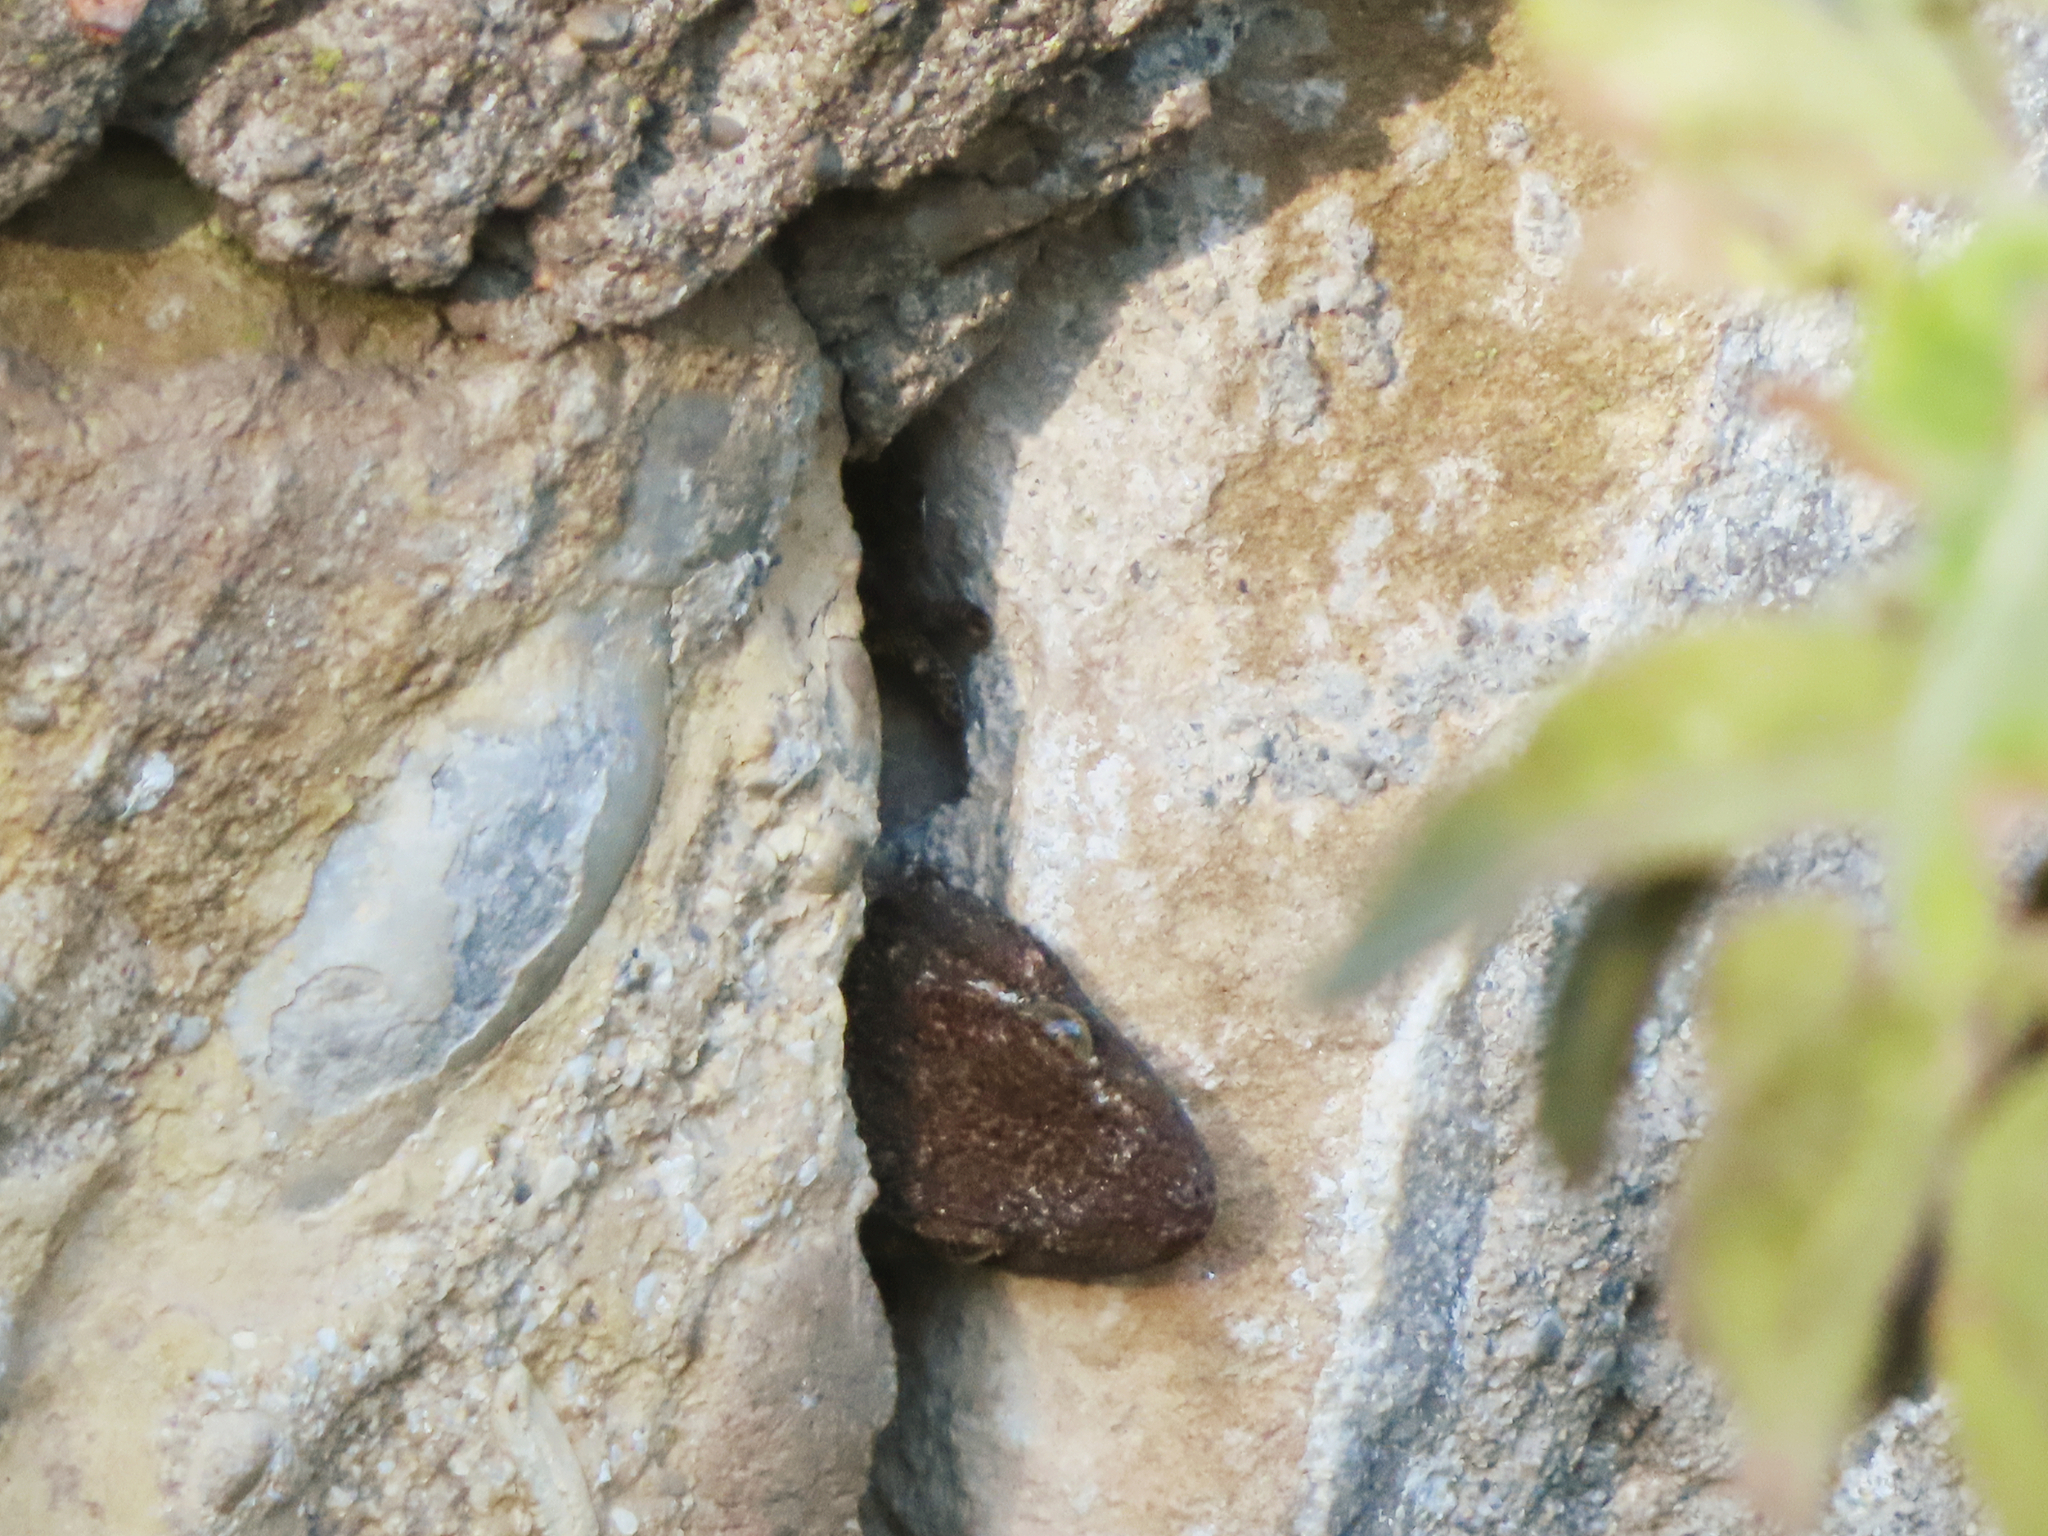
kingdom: Animalia
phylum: Chordata
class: Squamata
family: Phyllodactylidae
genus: Tarentola
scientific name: Tarentola mauritanica
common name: Moorish gecko
